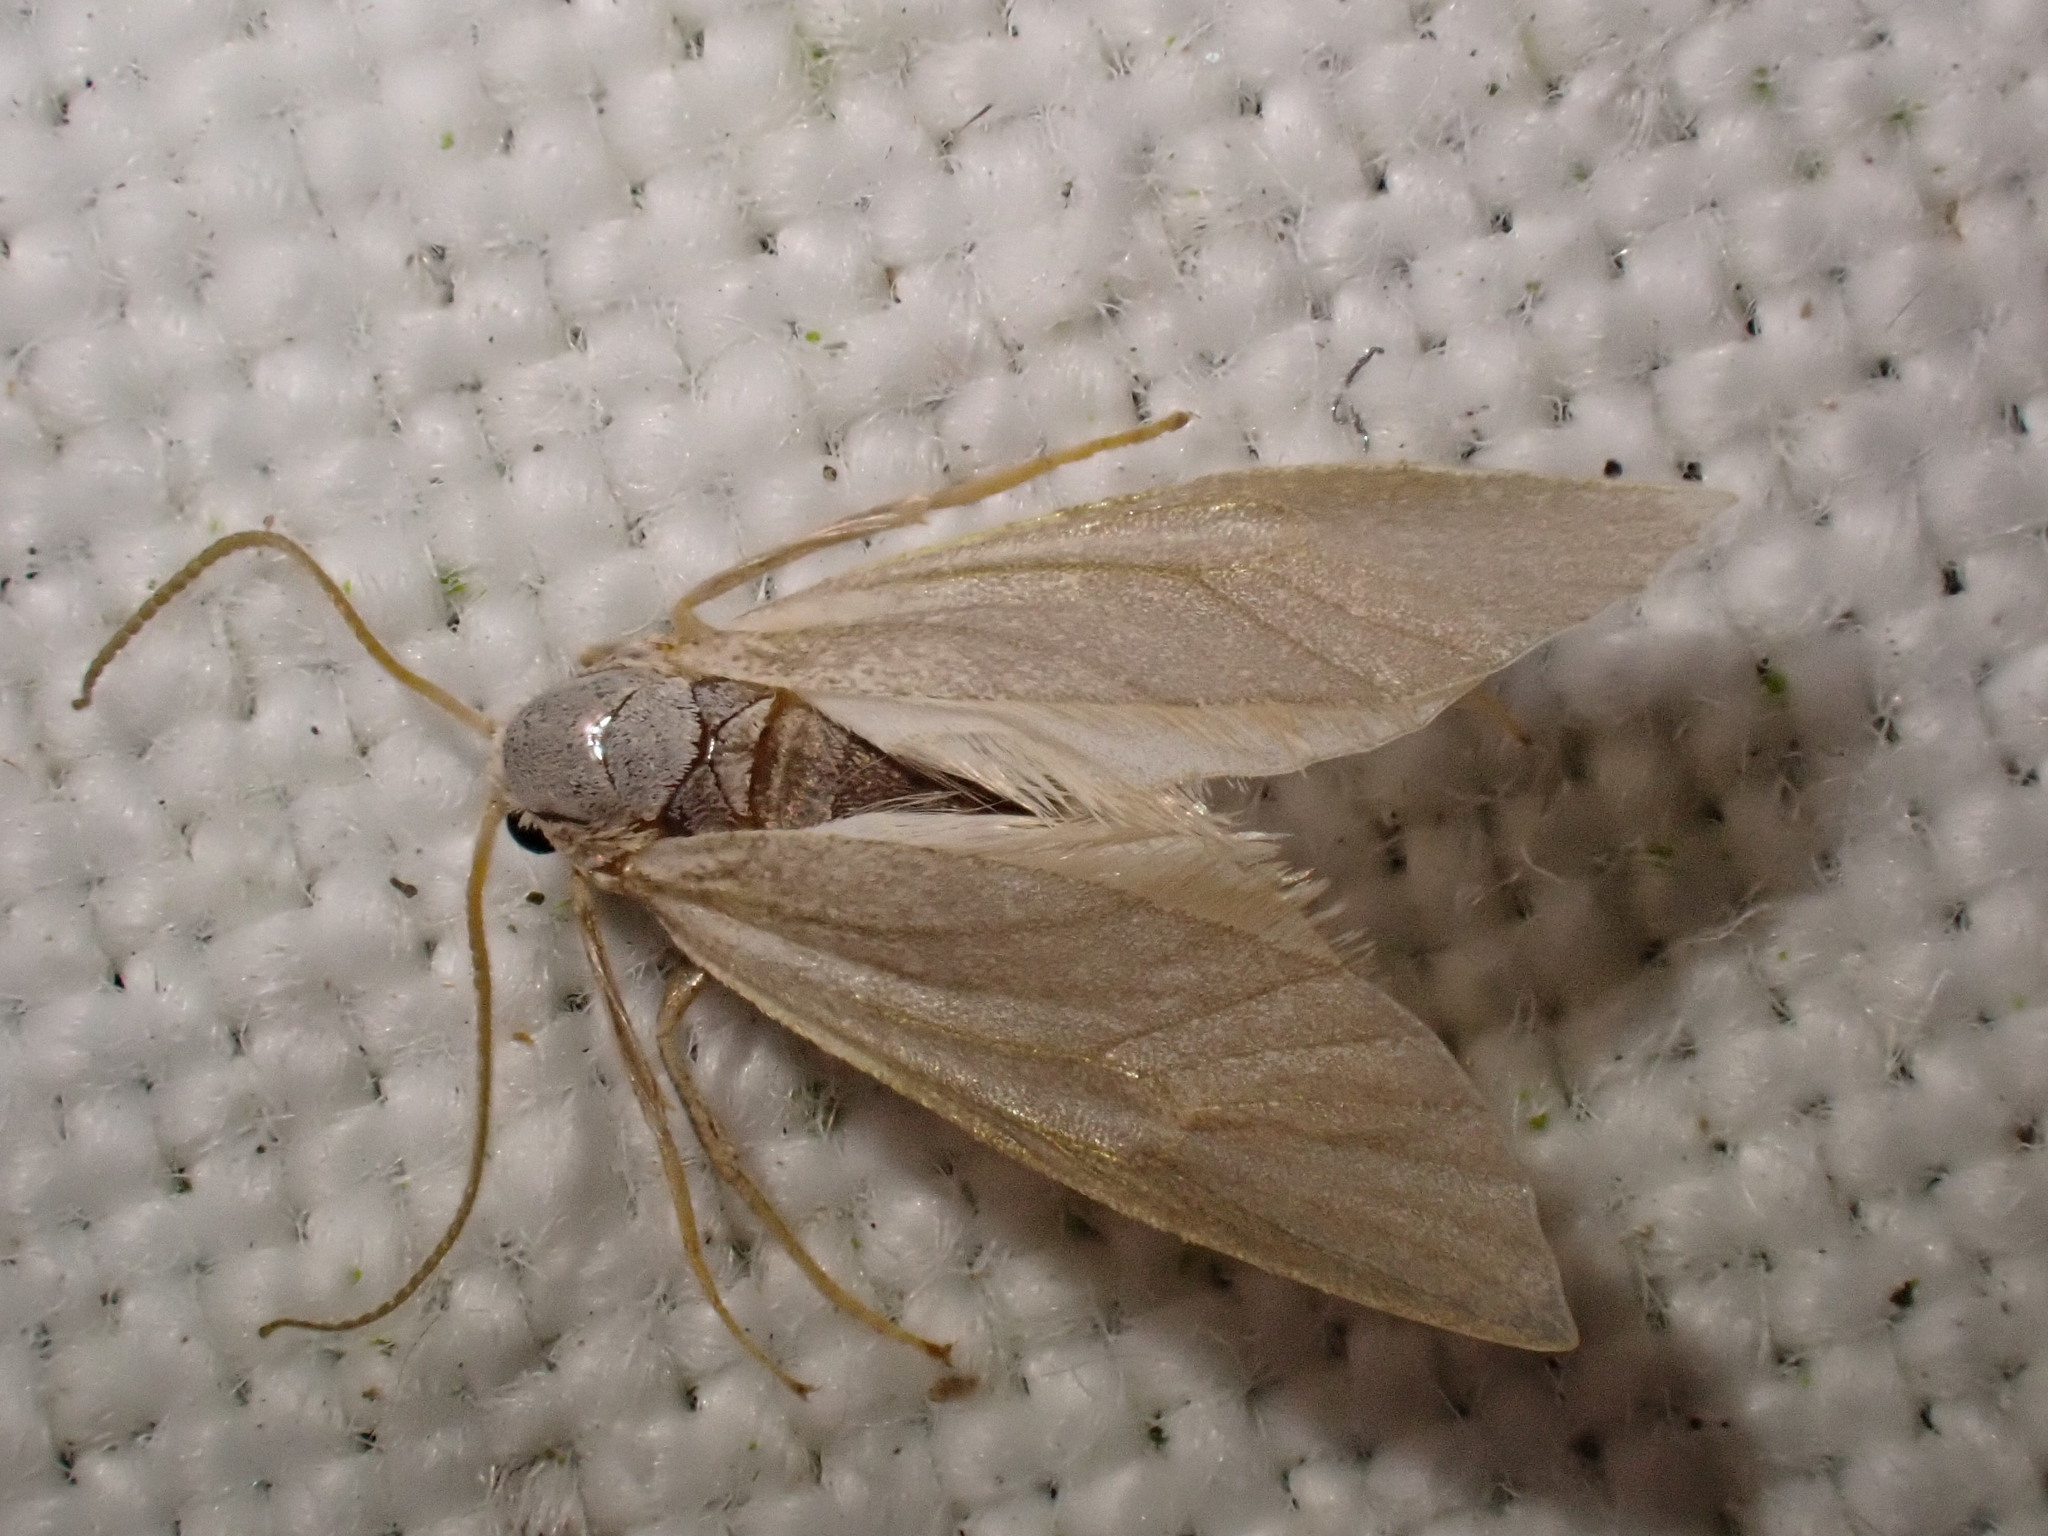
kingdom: Animalia
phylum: Arthropoda
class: Insecta
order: Lepidoptera
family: Crambidae
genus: Acentria
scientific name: Acentria ephemerella
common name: European water moth
